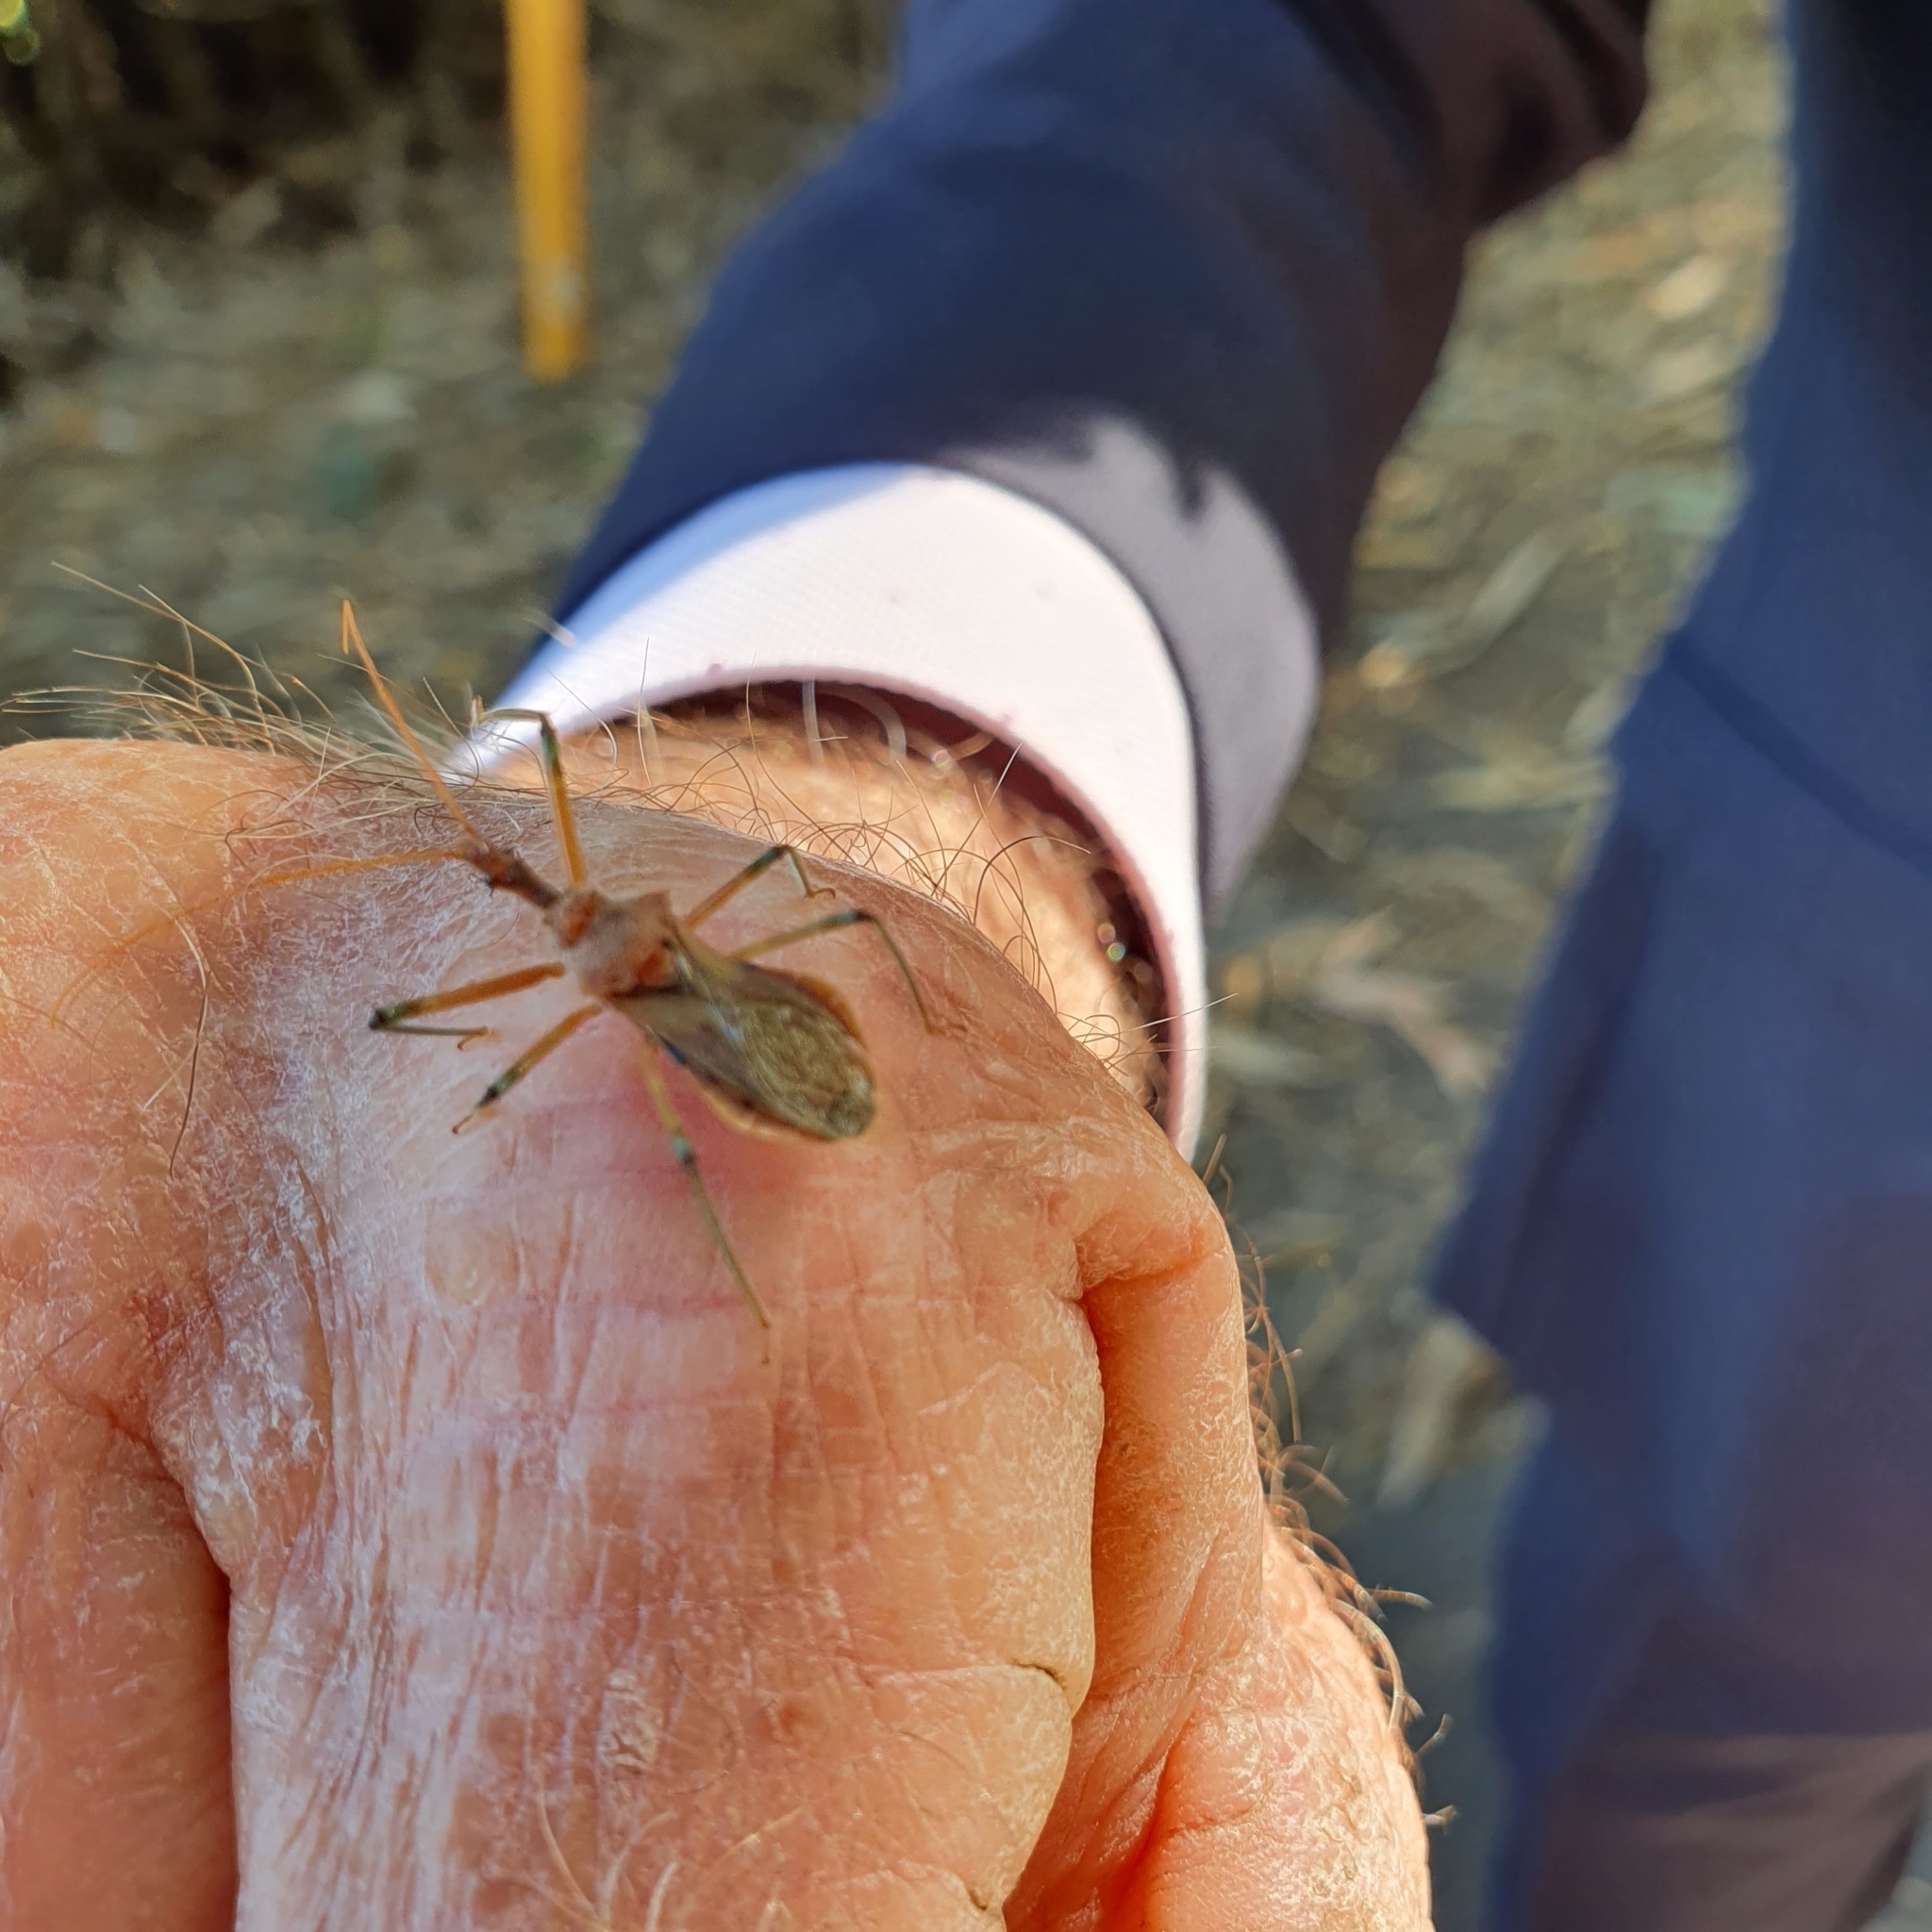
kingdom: Animalia
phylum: Arthropoda
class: Insecta
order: Hemiptera
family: Reduviidae
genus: Pristhesancus
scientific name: Pristhesancus plagipennis
